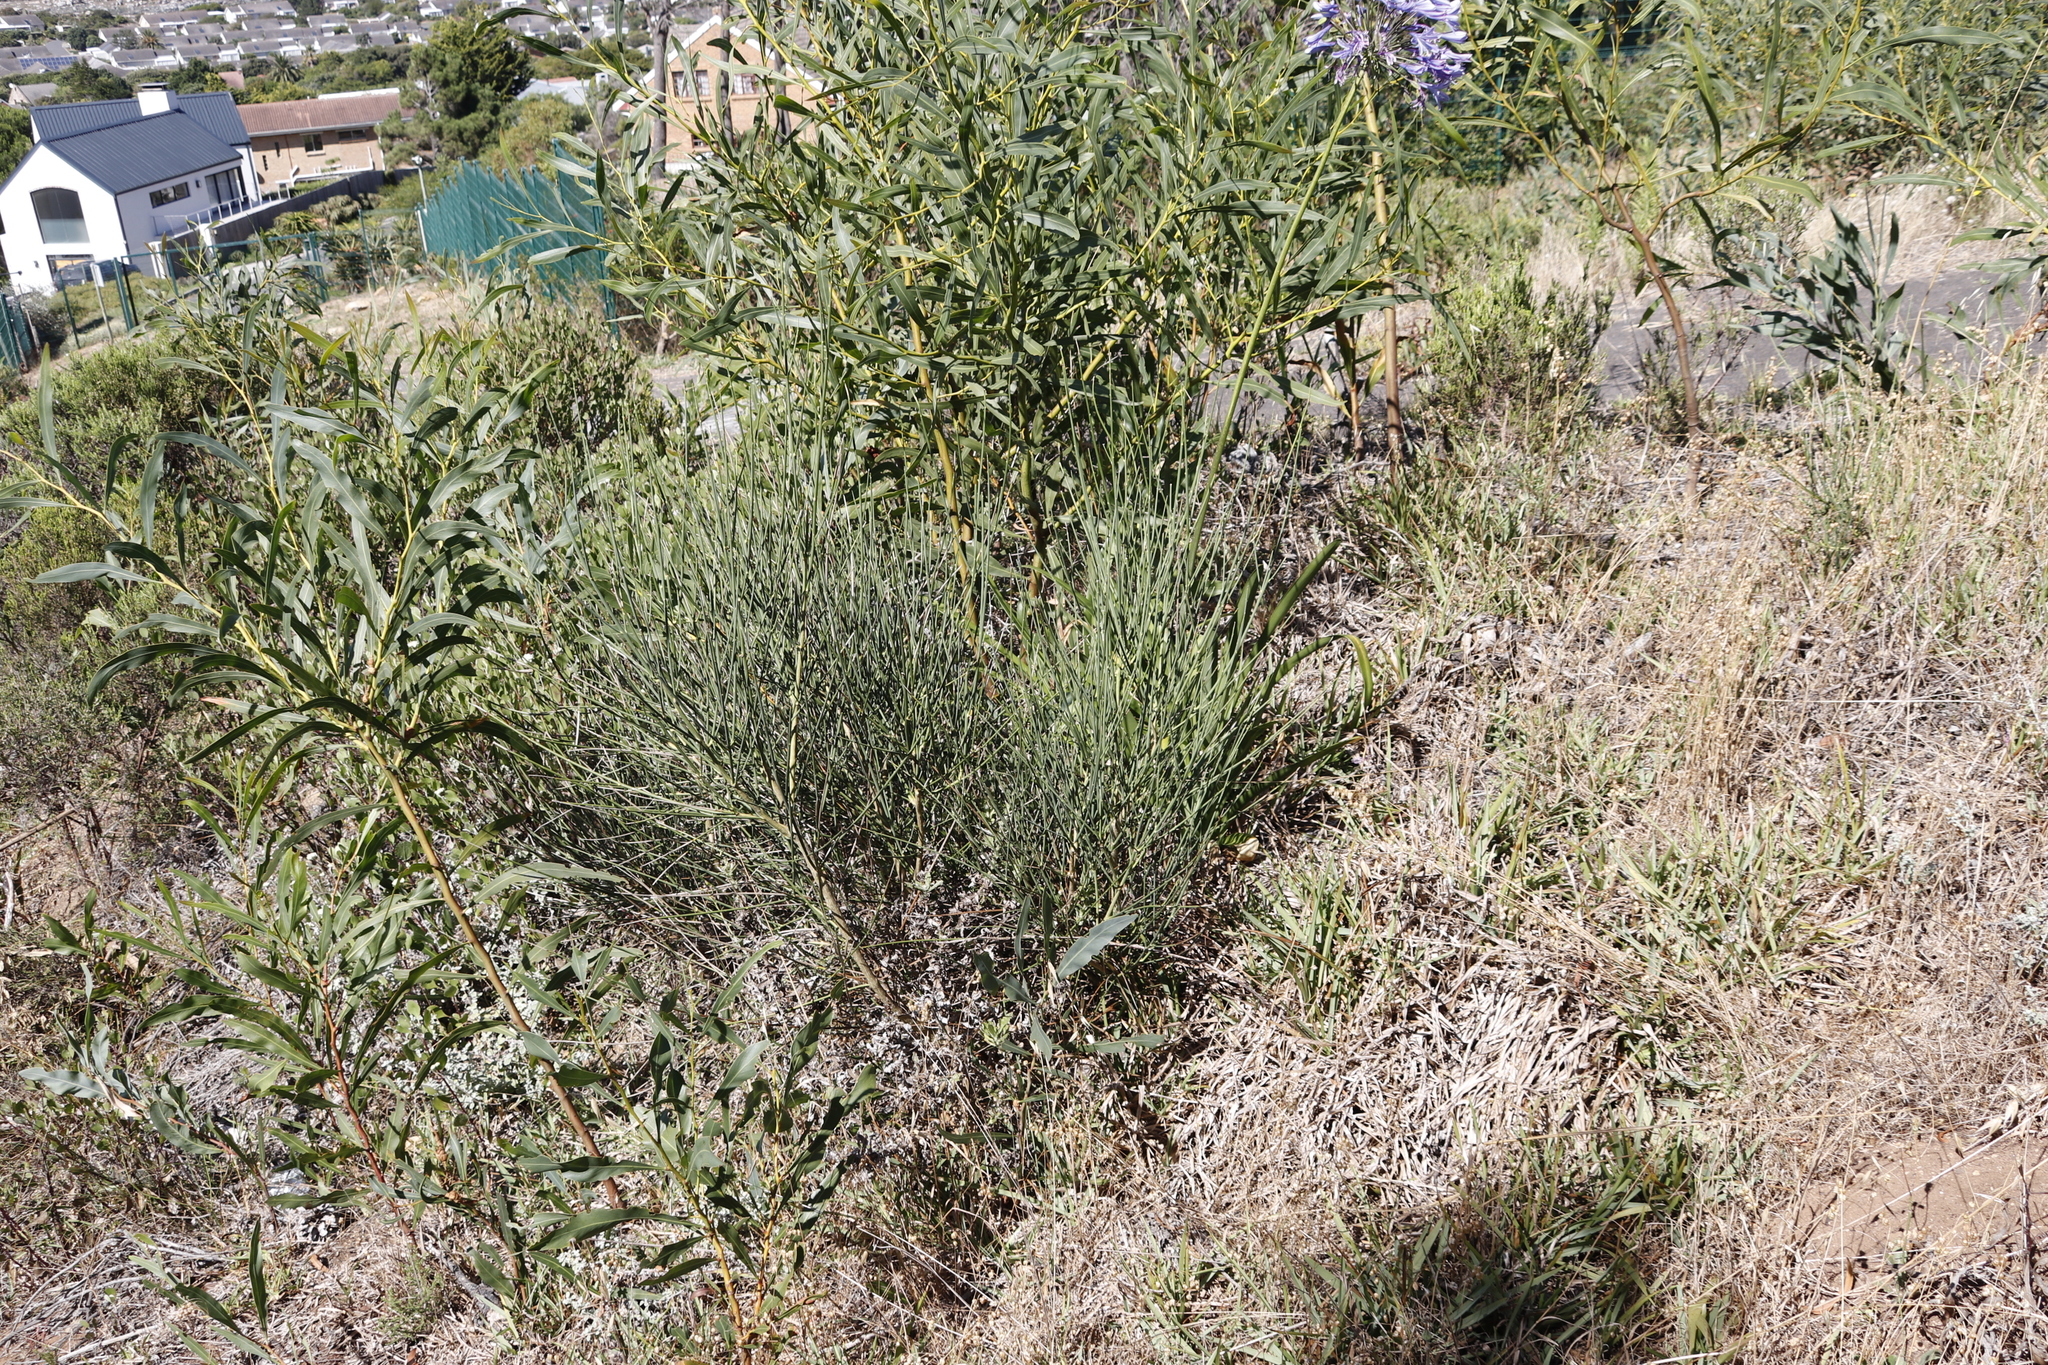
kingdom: Plantae
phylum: Tracheophyta
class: Magnoliopsida
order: Fabales
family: Fabaceae
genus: Spartium
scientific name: Spartium junceum
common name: Spanish broom
